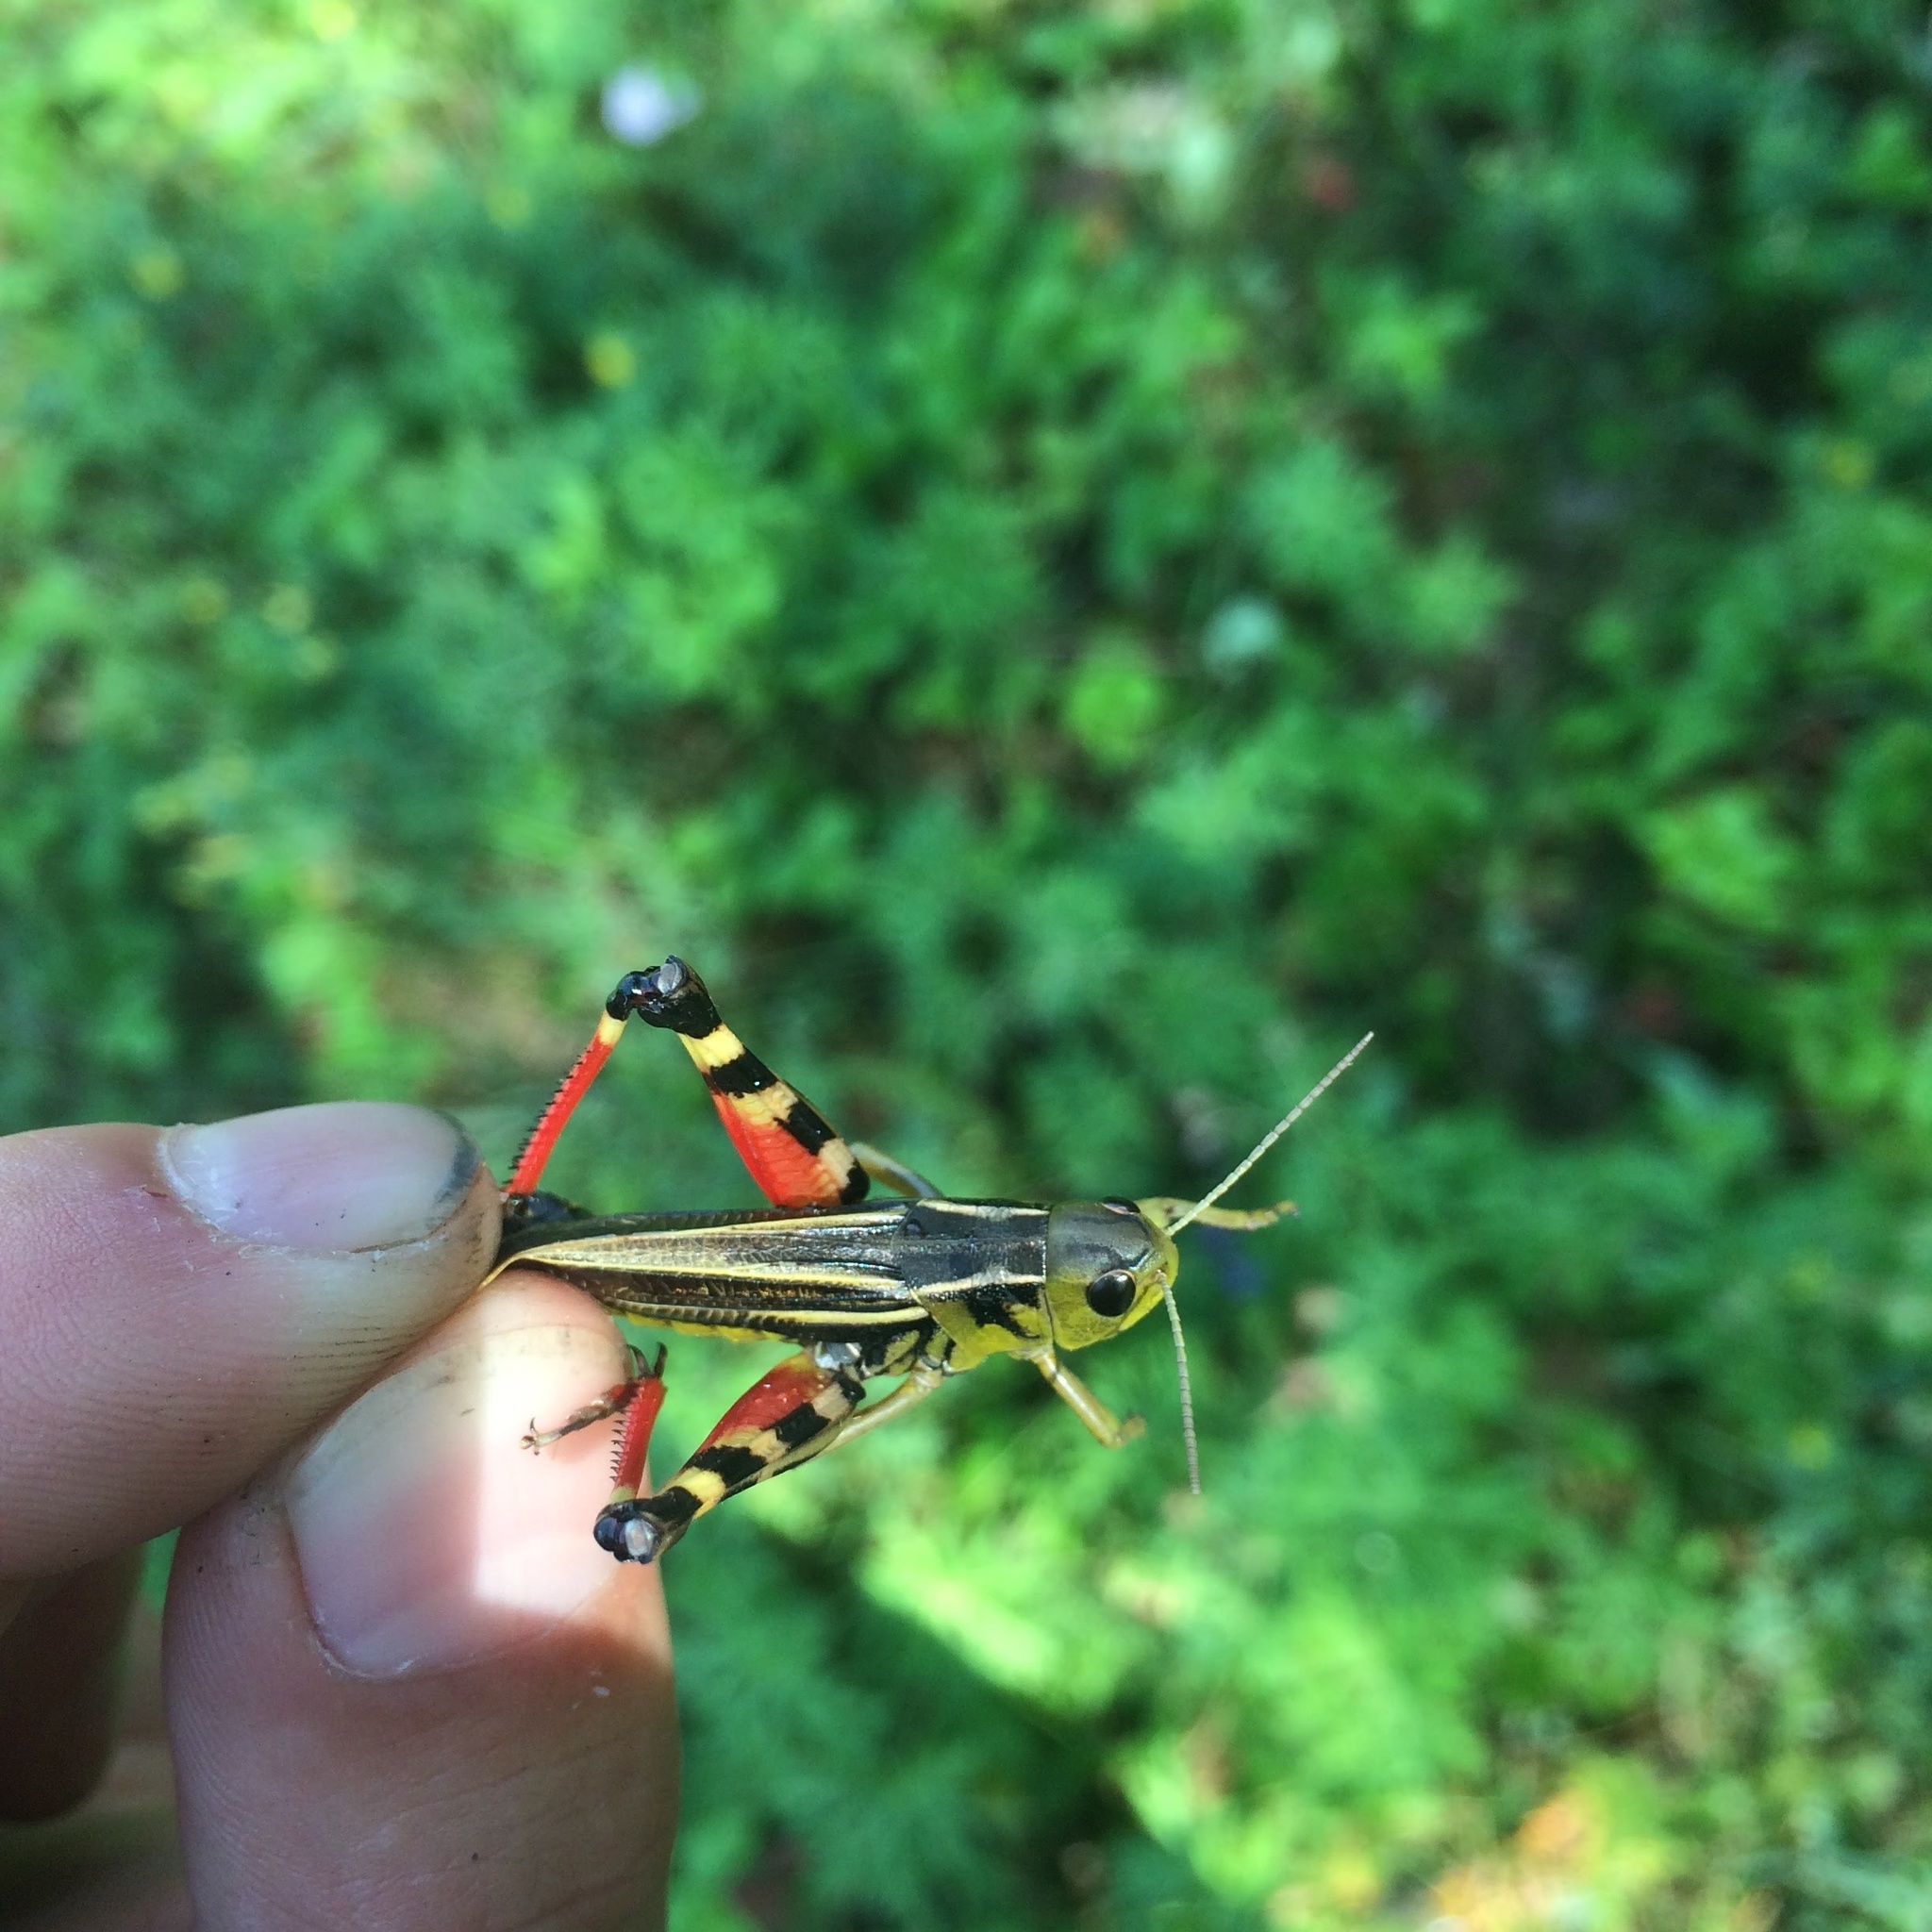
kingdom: Animalia
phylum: Arthropoda
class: Insecta
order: Orthoptera
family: Acrididae
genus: Arcyptera
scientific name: Arcyptera fusca
